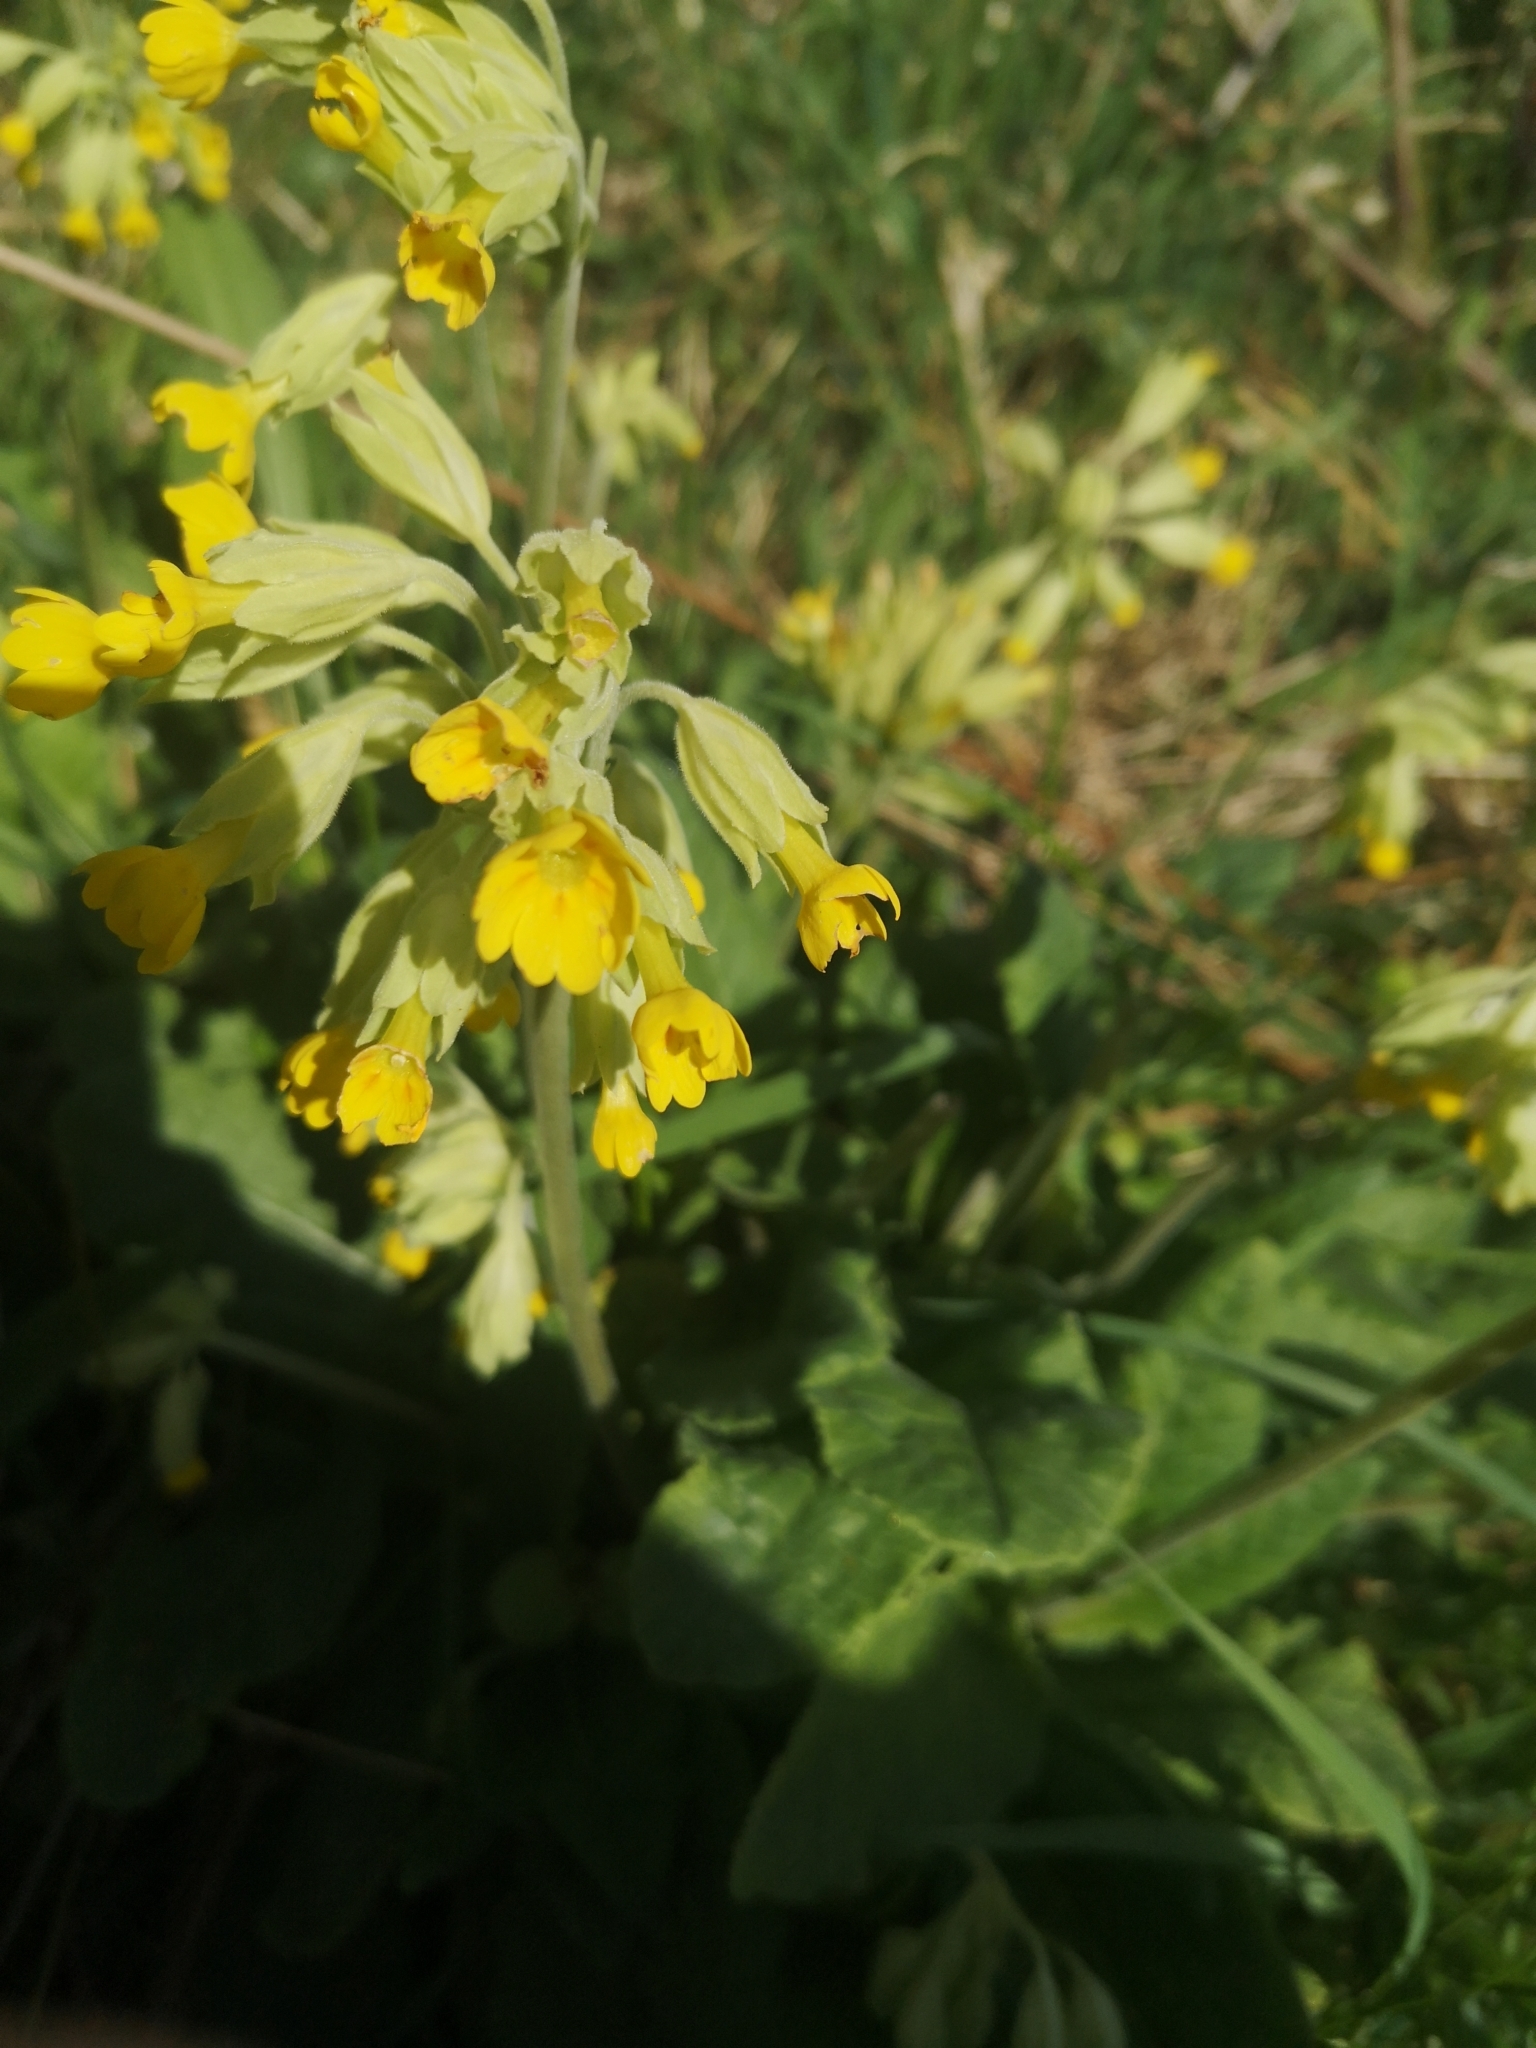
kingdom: Plantae
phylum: Tracheophyta
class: Magnoliopsida
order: Ericales
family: Primulaceae
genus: Primula
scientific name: Primula veris
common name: Cowslip
